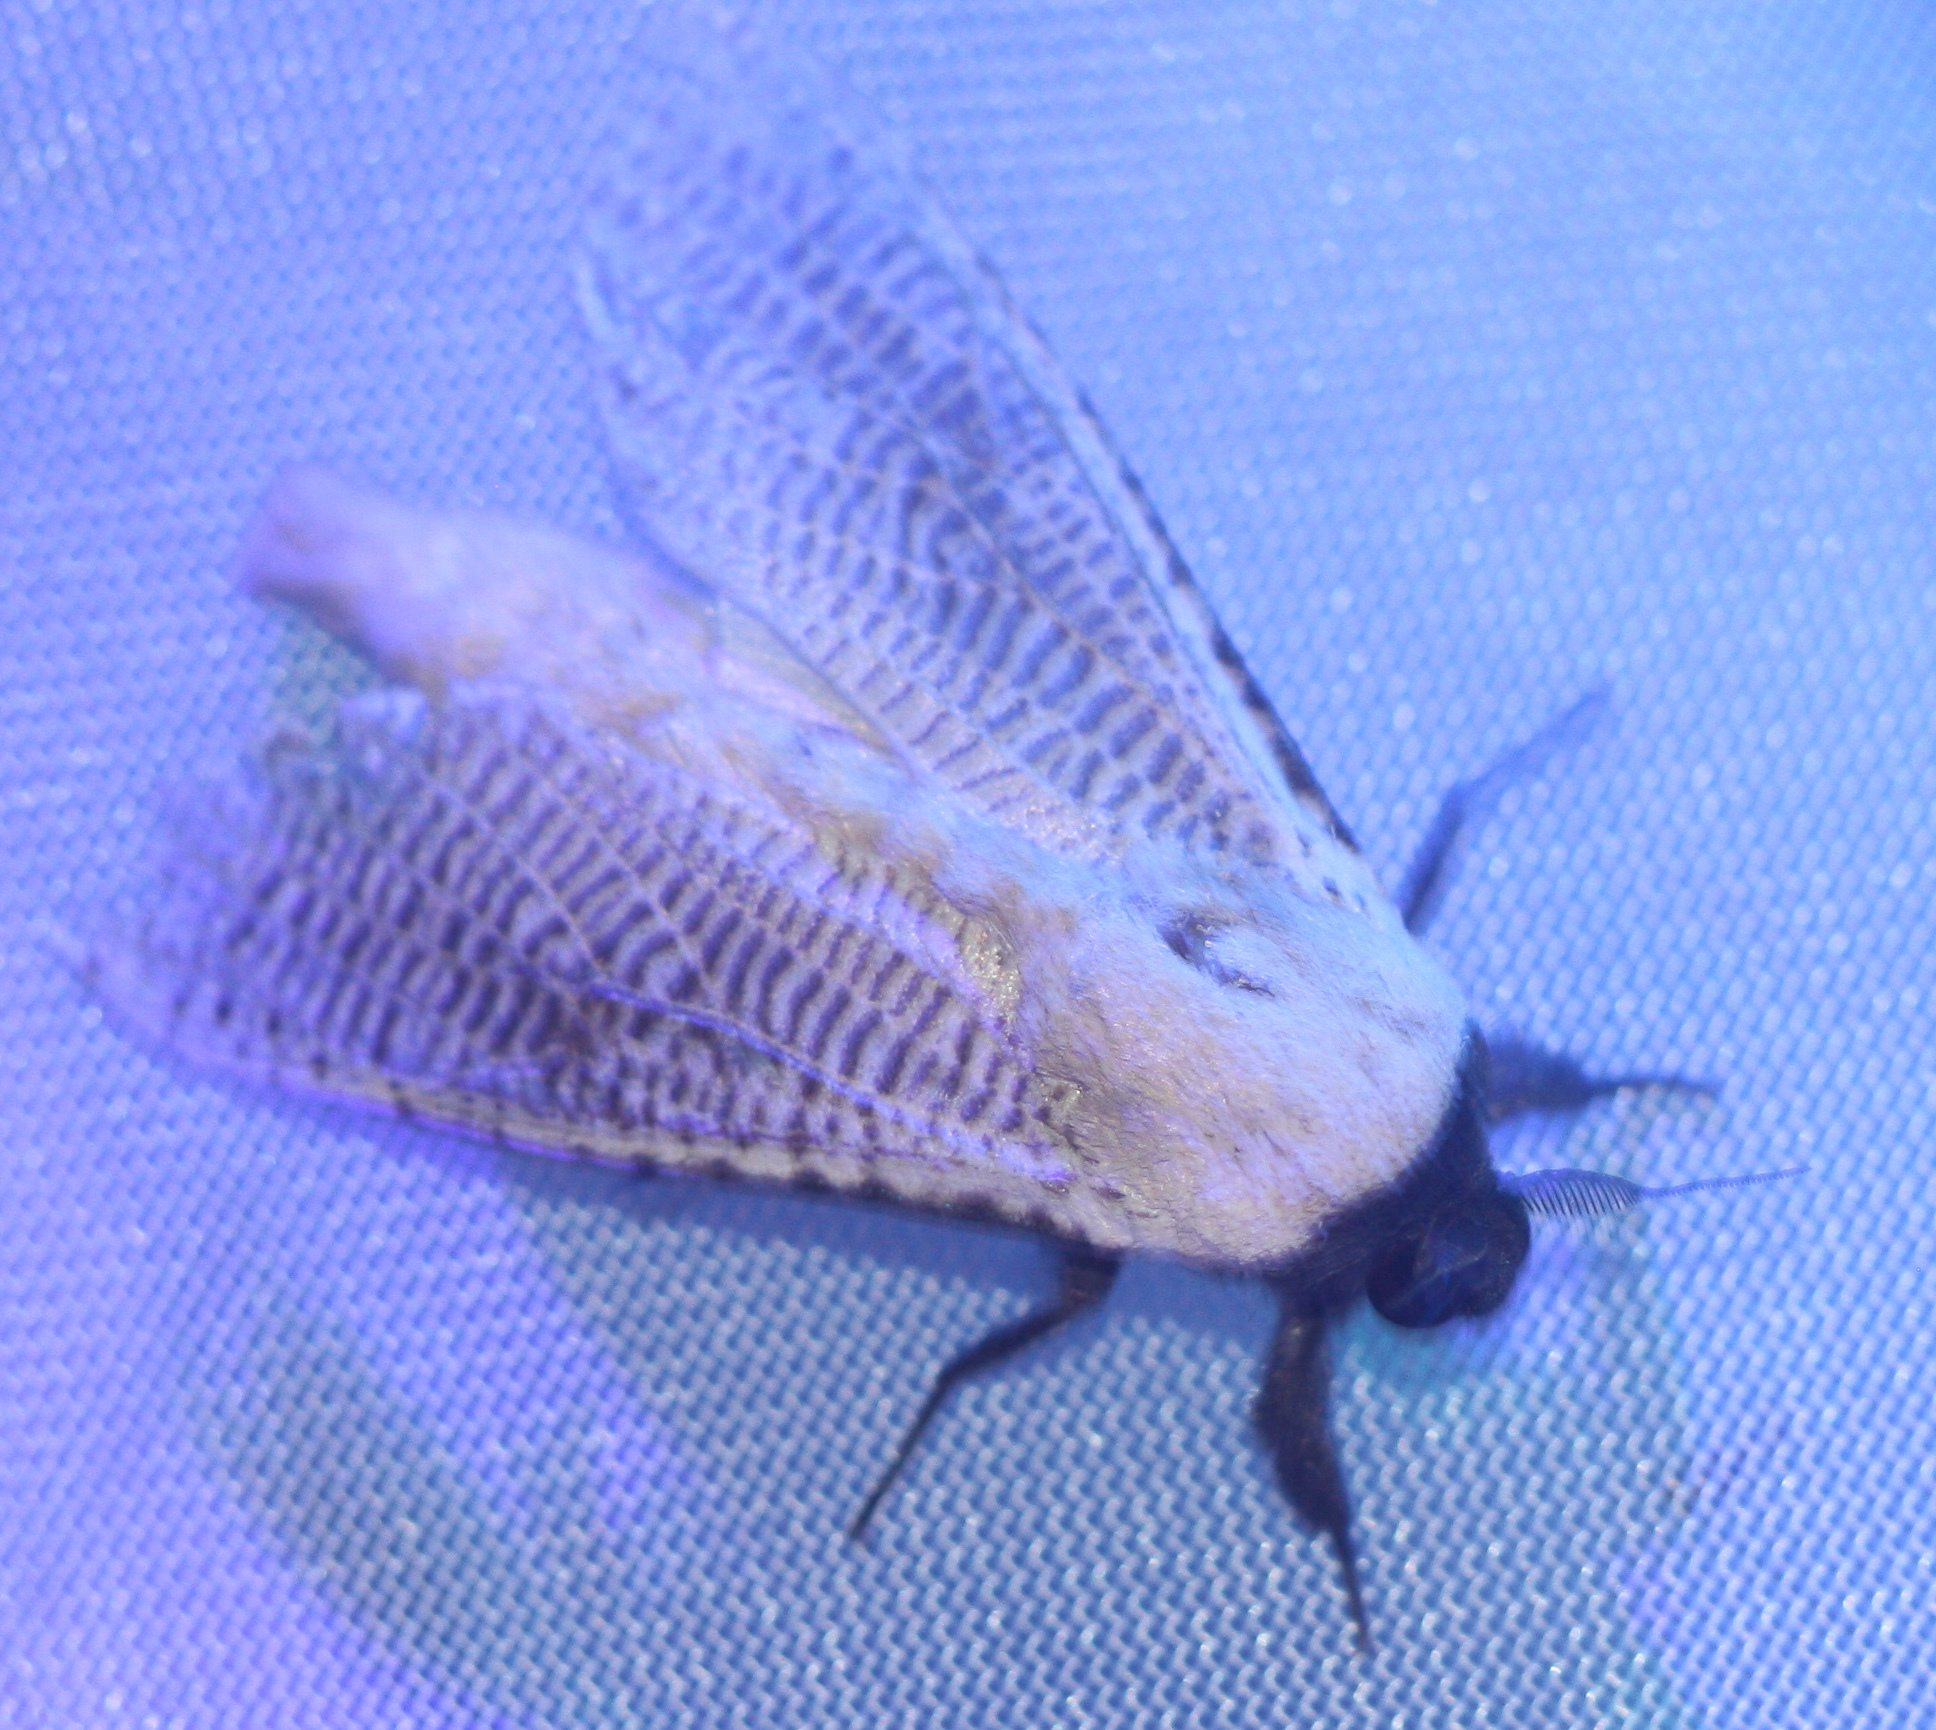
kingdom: Animalia
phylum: Arthropoda
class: Insecta
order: Lepidoptera
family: Cossidae
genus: Morpheis
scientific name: Morpheis
